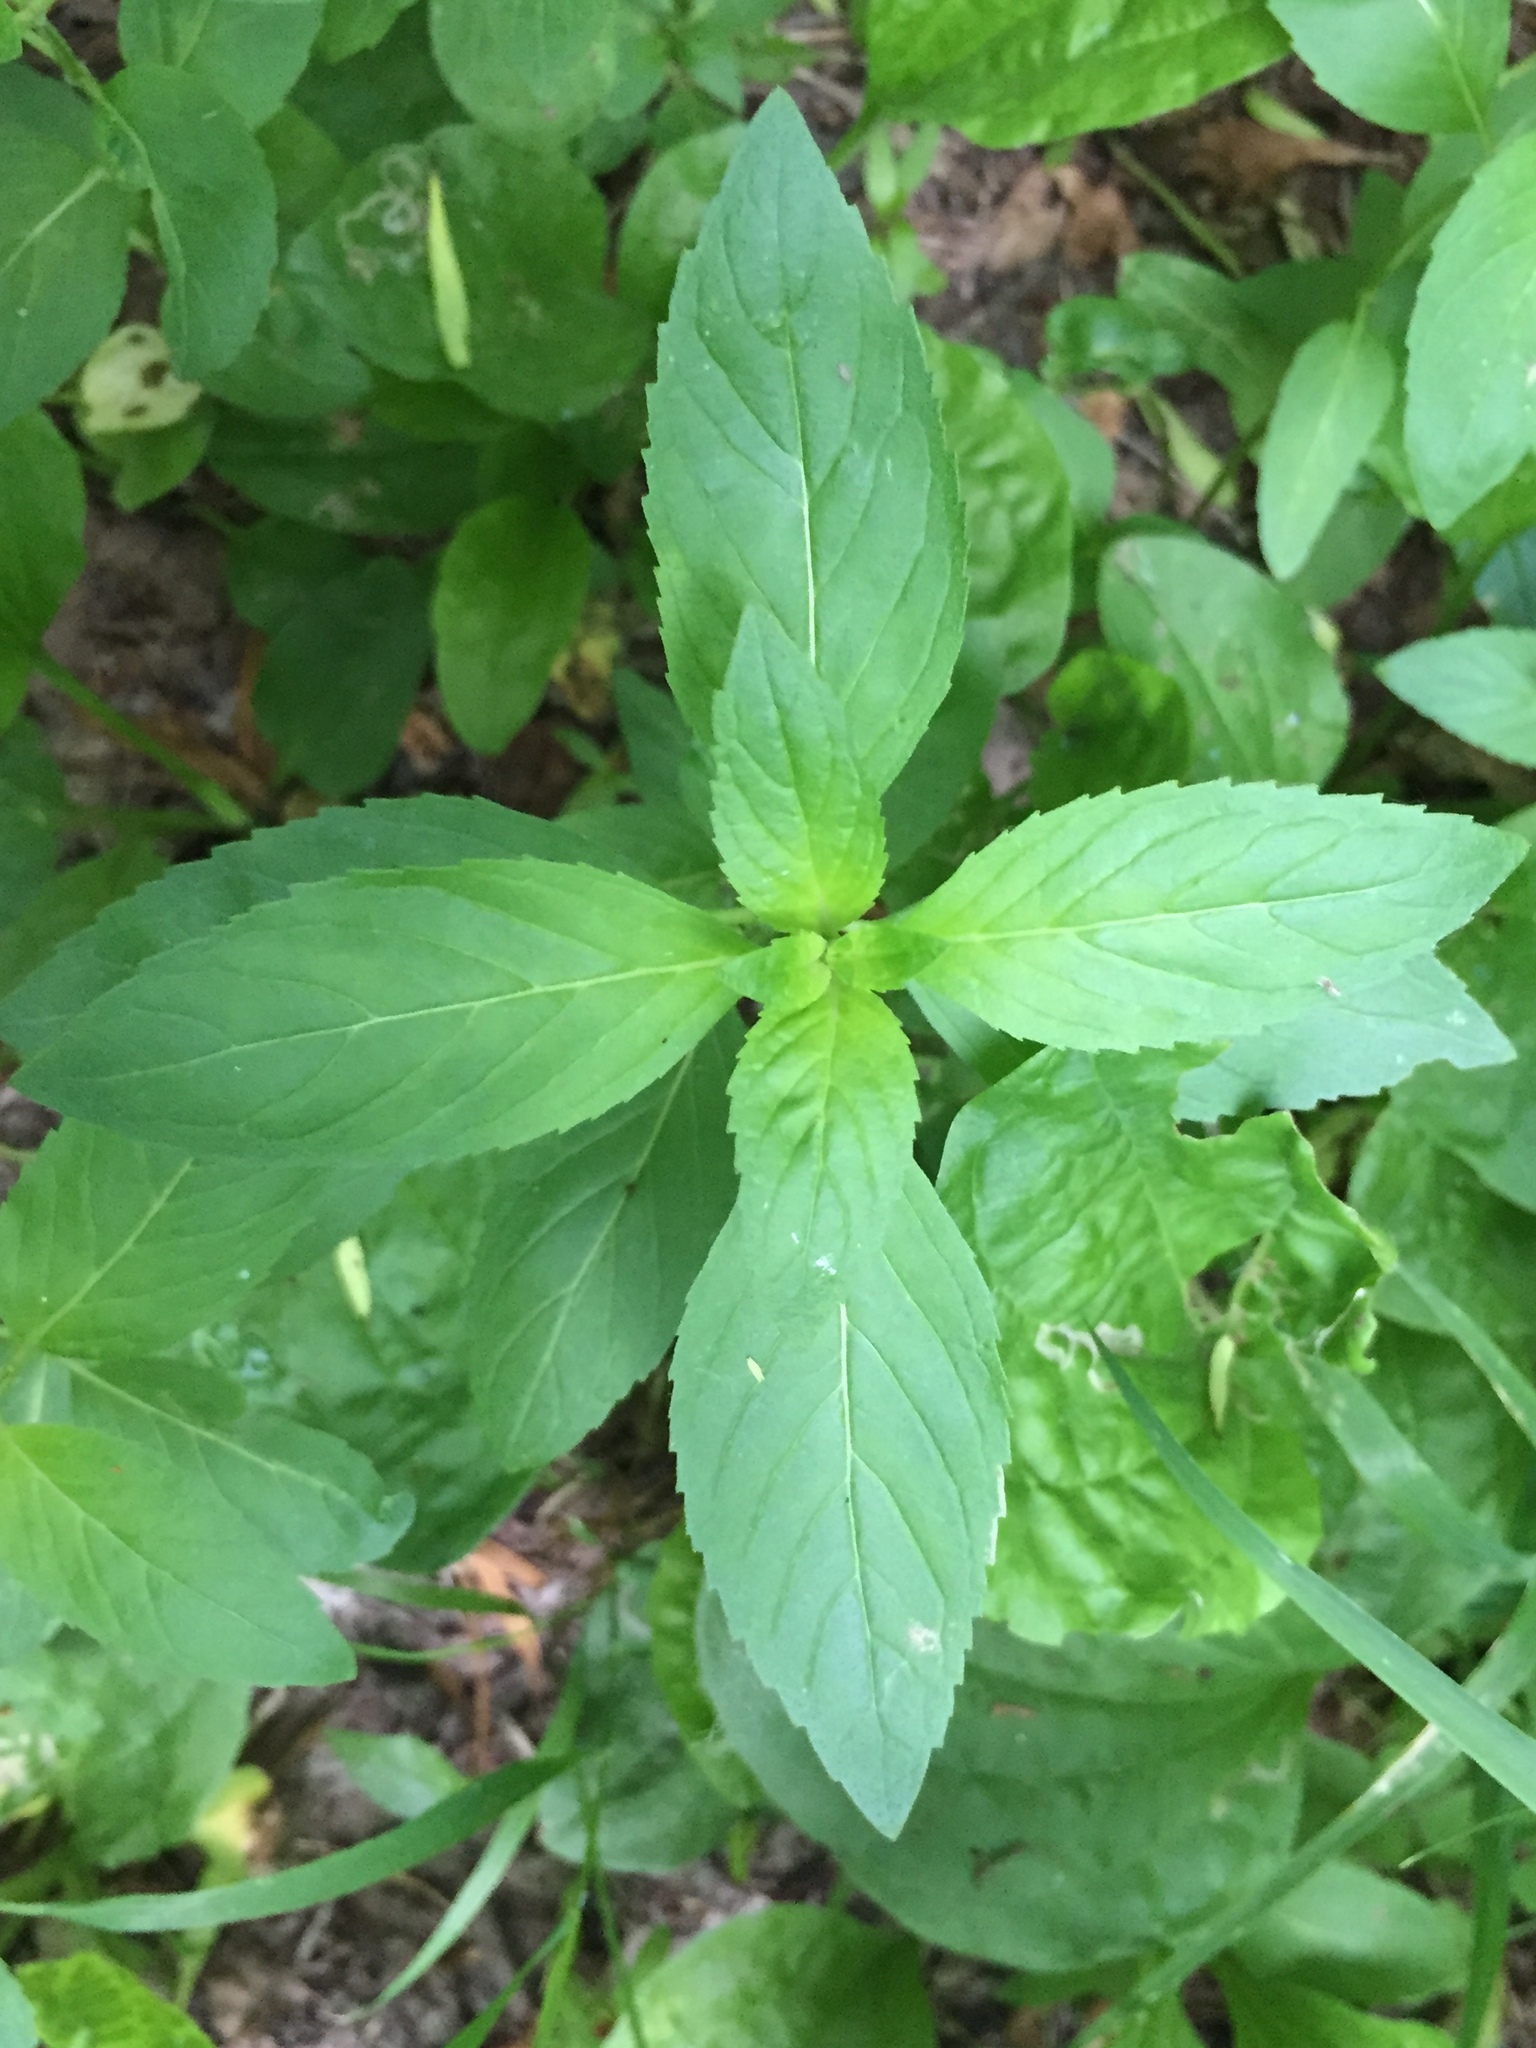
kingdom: Plantae
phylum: Tracheophyta
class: Magnoliopsida
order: Lamiales
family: Lamiaceae
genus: Mentha
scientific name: Mentha canadensis
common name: American corn mint
